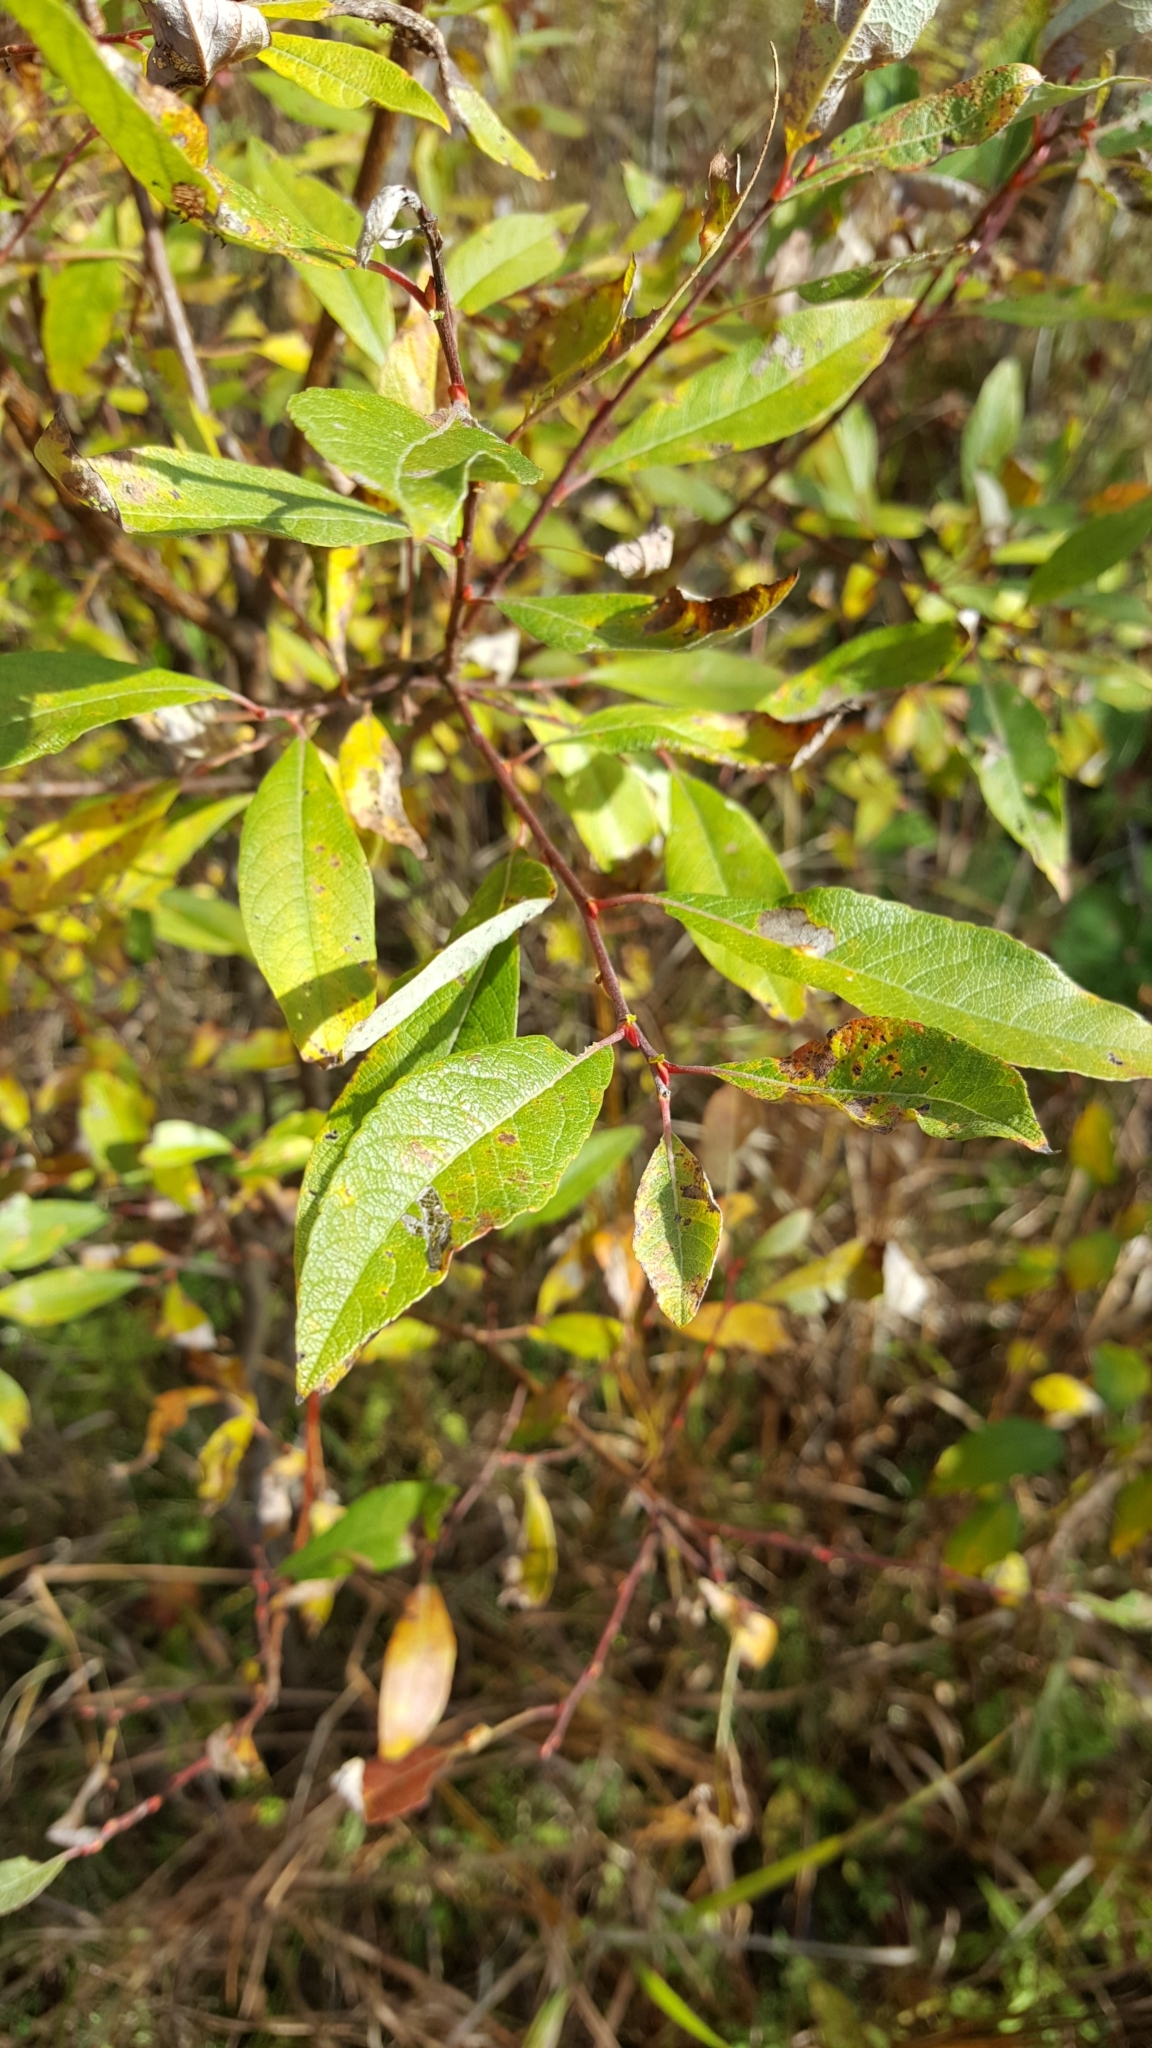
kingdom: Plantae
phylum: Tracheophyta
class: Magnoliopsida
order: Malpighiales
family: Salicaceae
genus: Salix
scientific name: Salix bebbiana
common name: Bebb's willow
